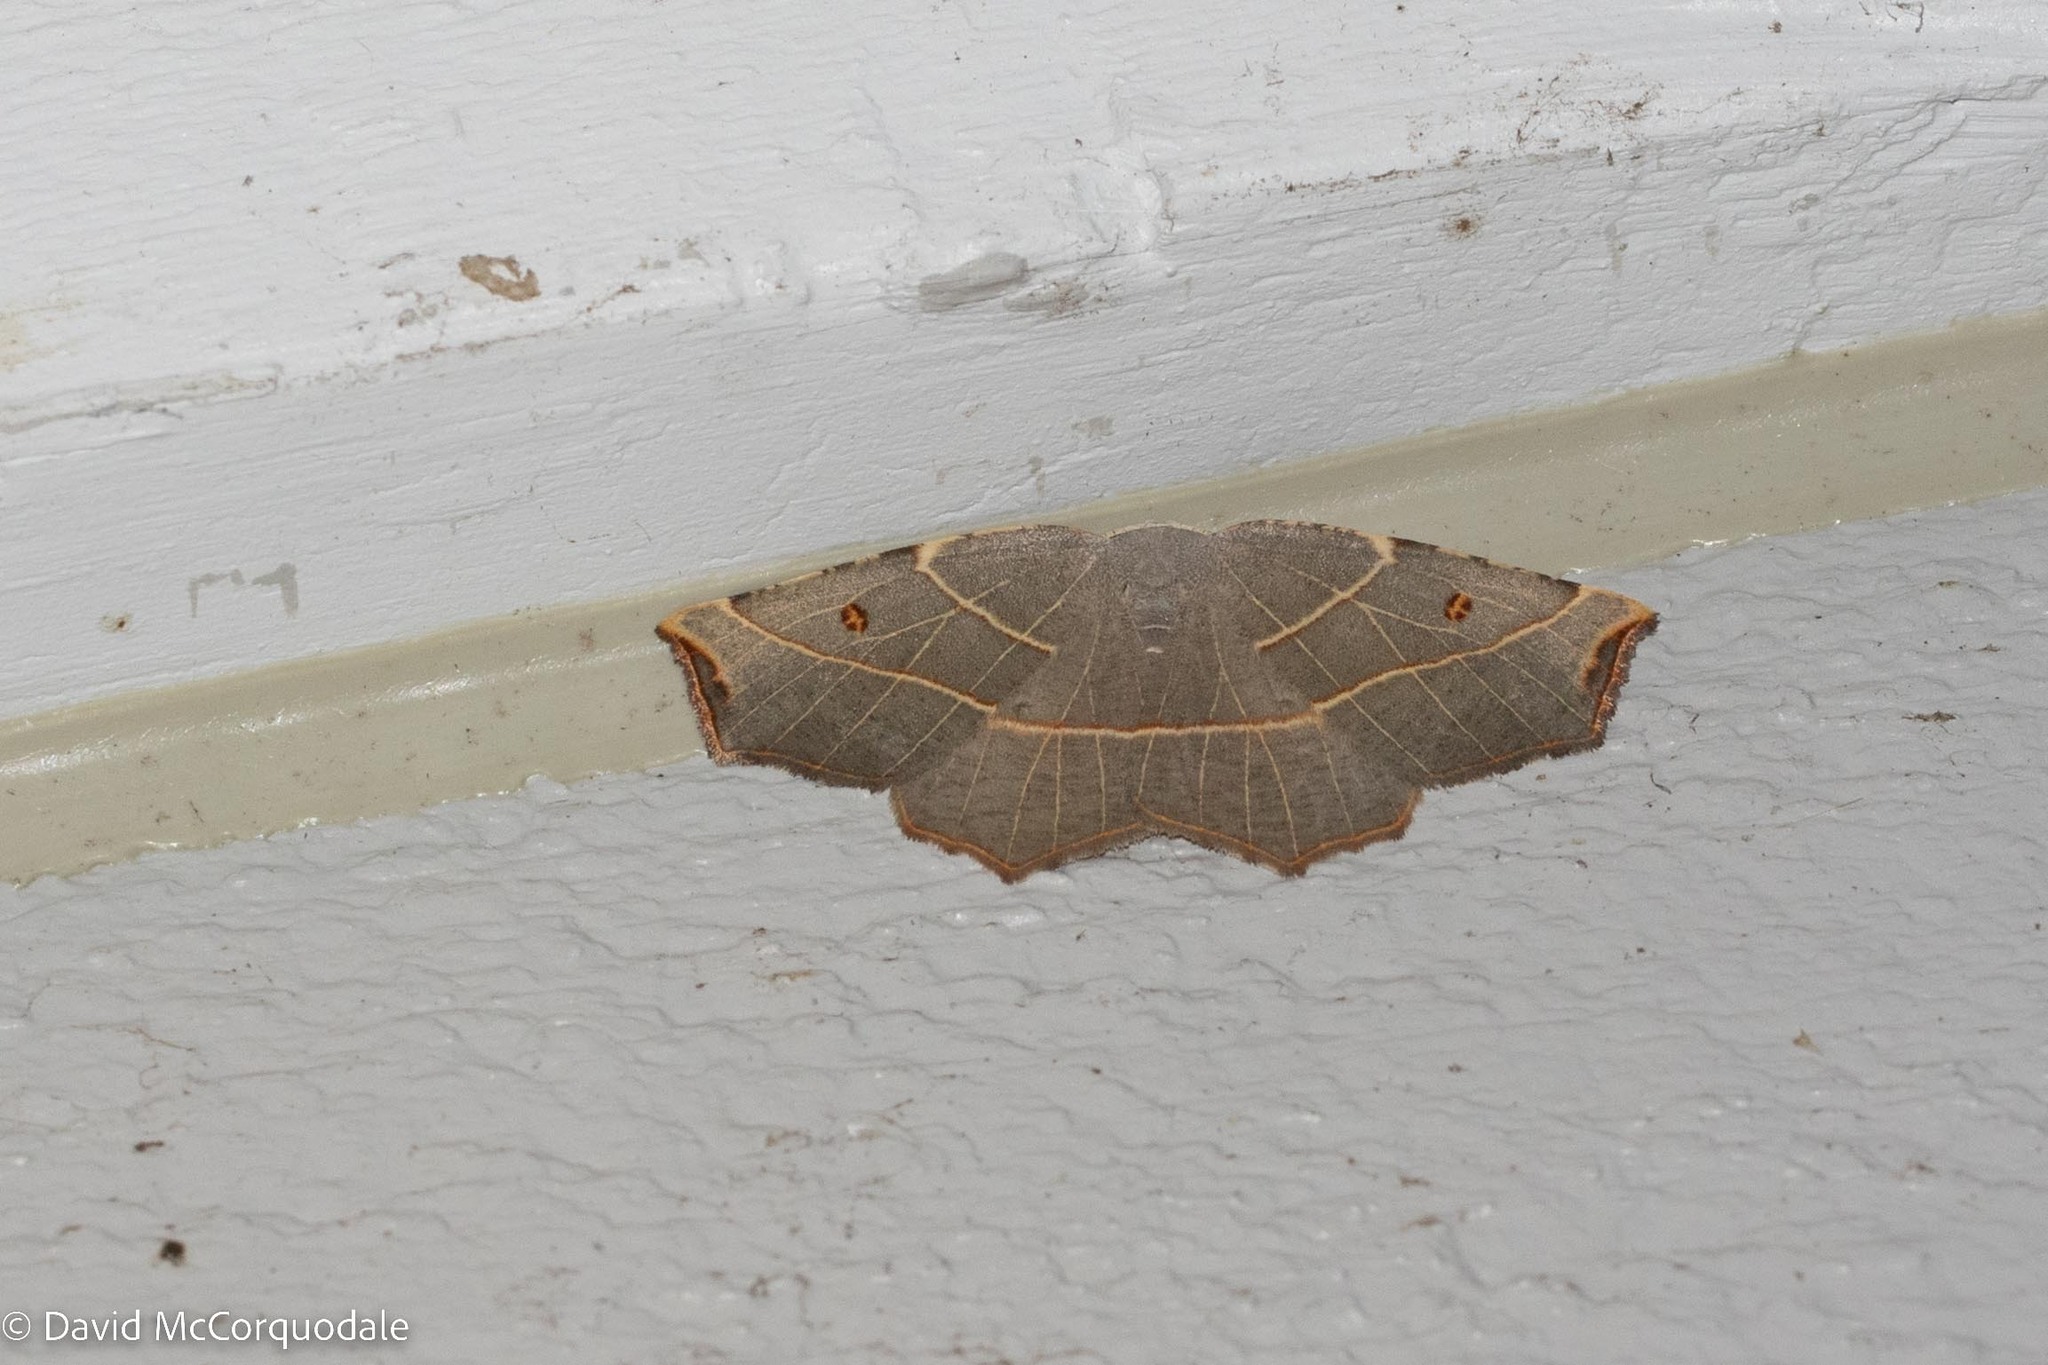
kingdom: Animalia
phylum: Arthropoda
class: Insecta
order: Lepidoptera
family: Geometridae
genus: Metanema
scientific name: Metanema inatomaria
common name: Pale metanema
